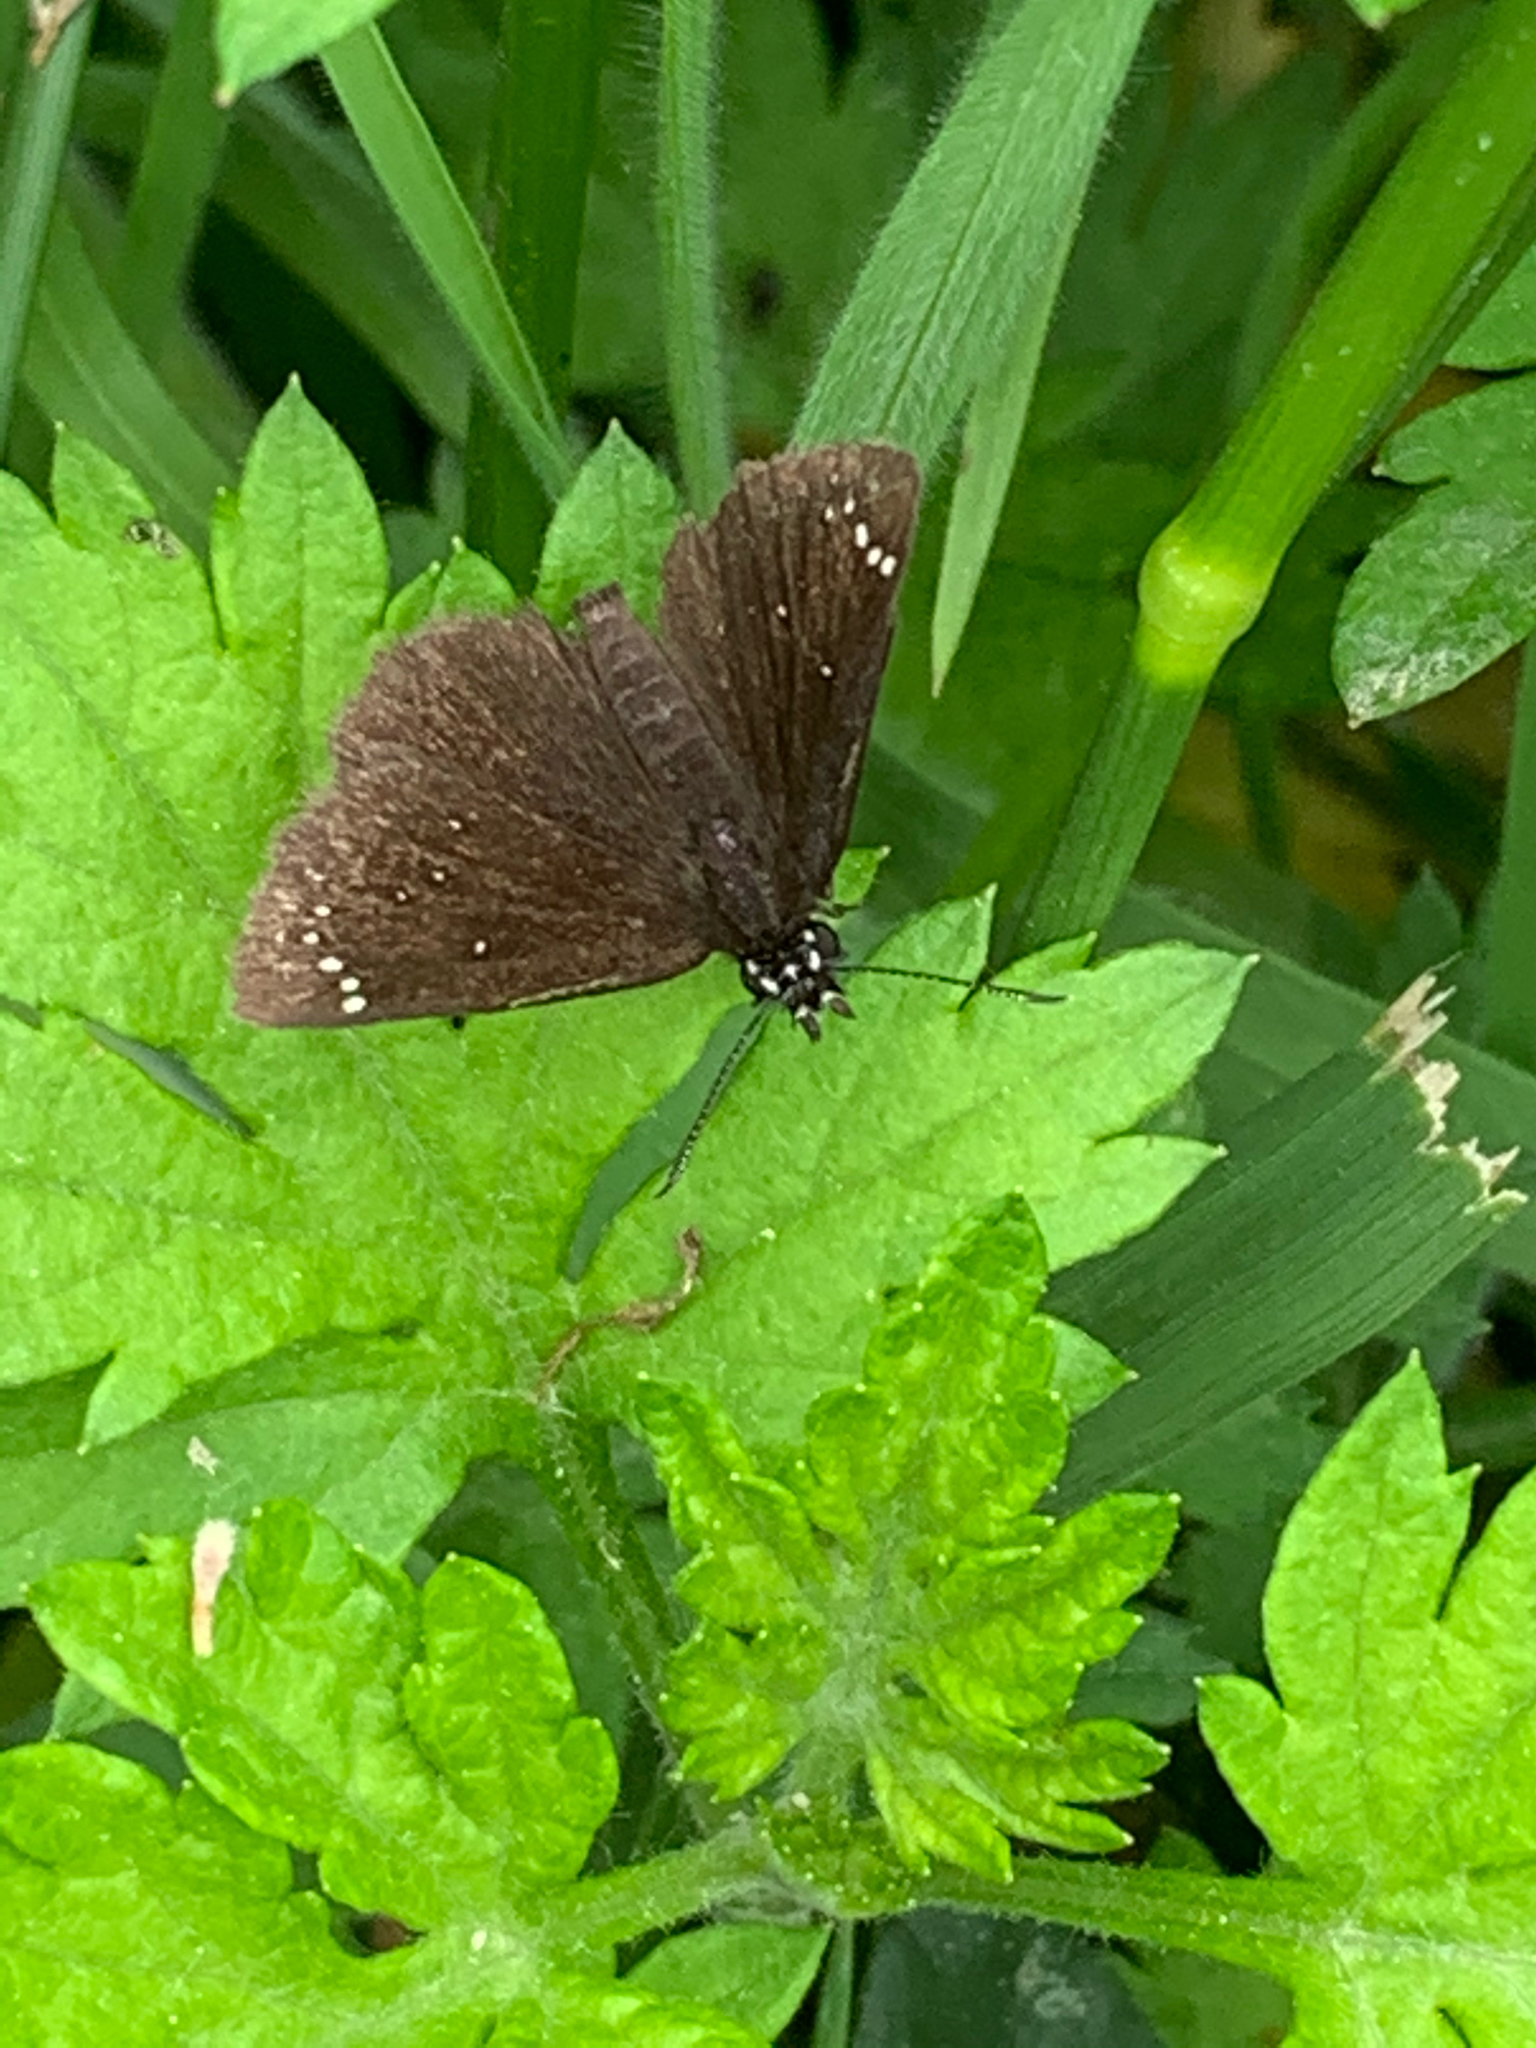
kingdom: Animalia
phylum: Arthropoda
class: Insecta
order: Lepidoptera
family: Hesperiidae
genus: Pholisora
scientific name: Pholisora catullus
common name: Common sootywing
